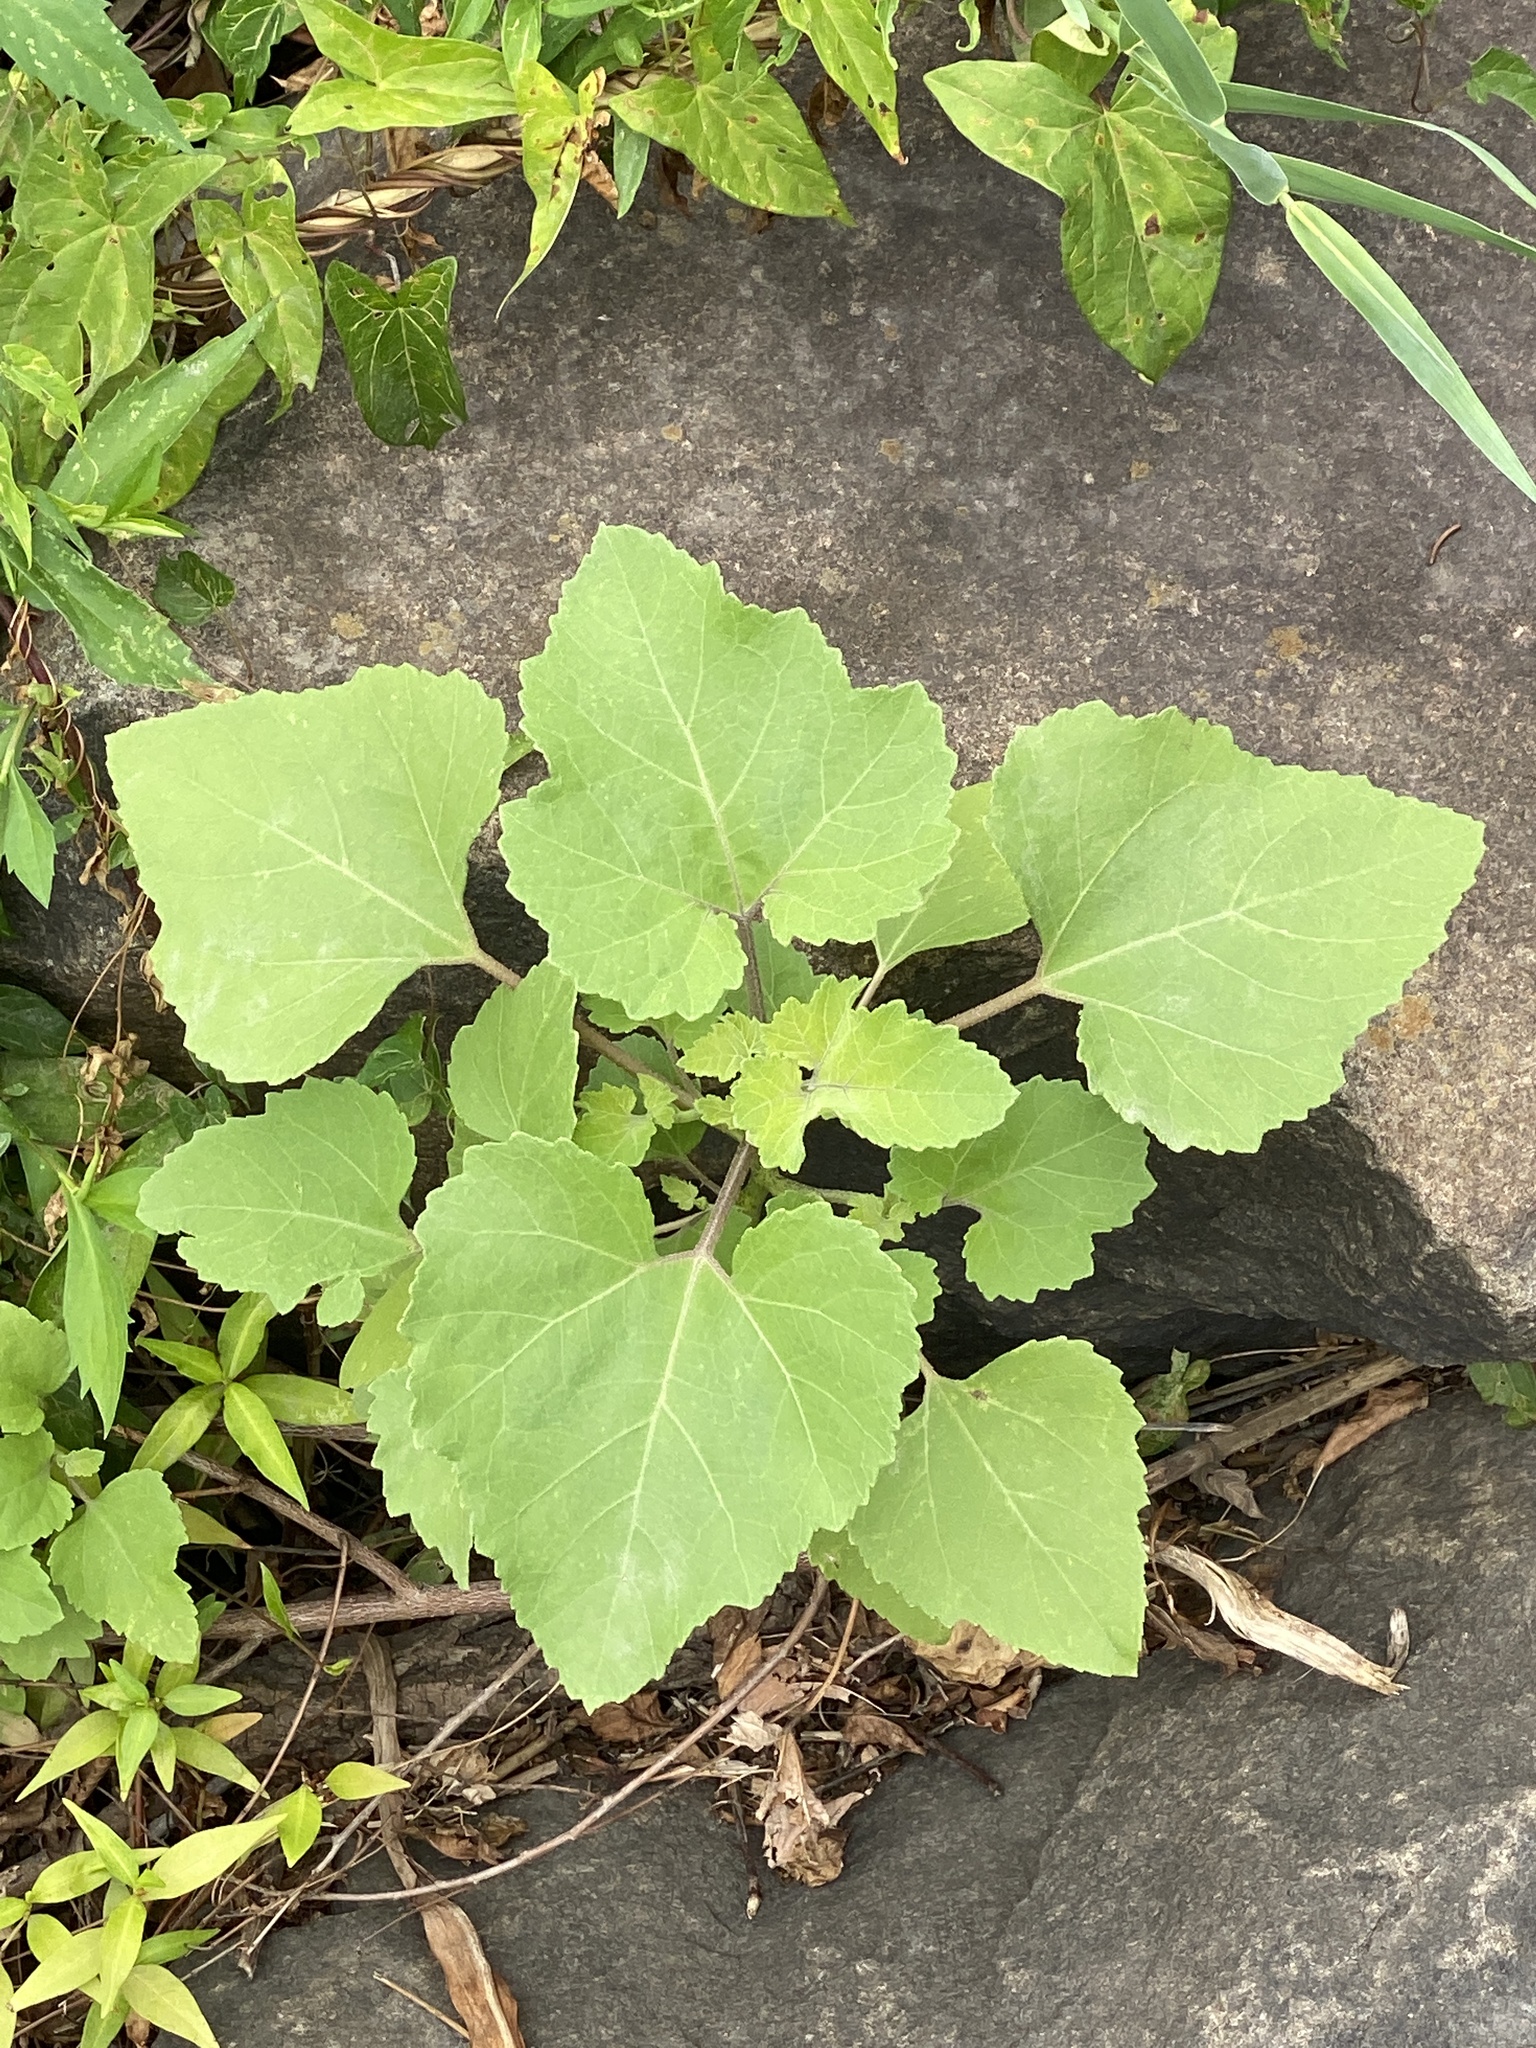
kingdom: Plantae
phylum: Tracheophyta
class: Magnoliopsida
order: Asterales
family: Asteraceae
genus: Xanthium
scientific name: Xanthium strumarium
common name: Rough cocklebur
